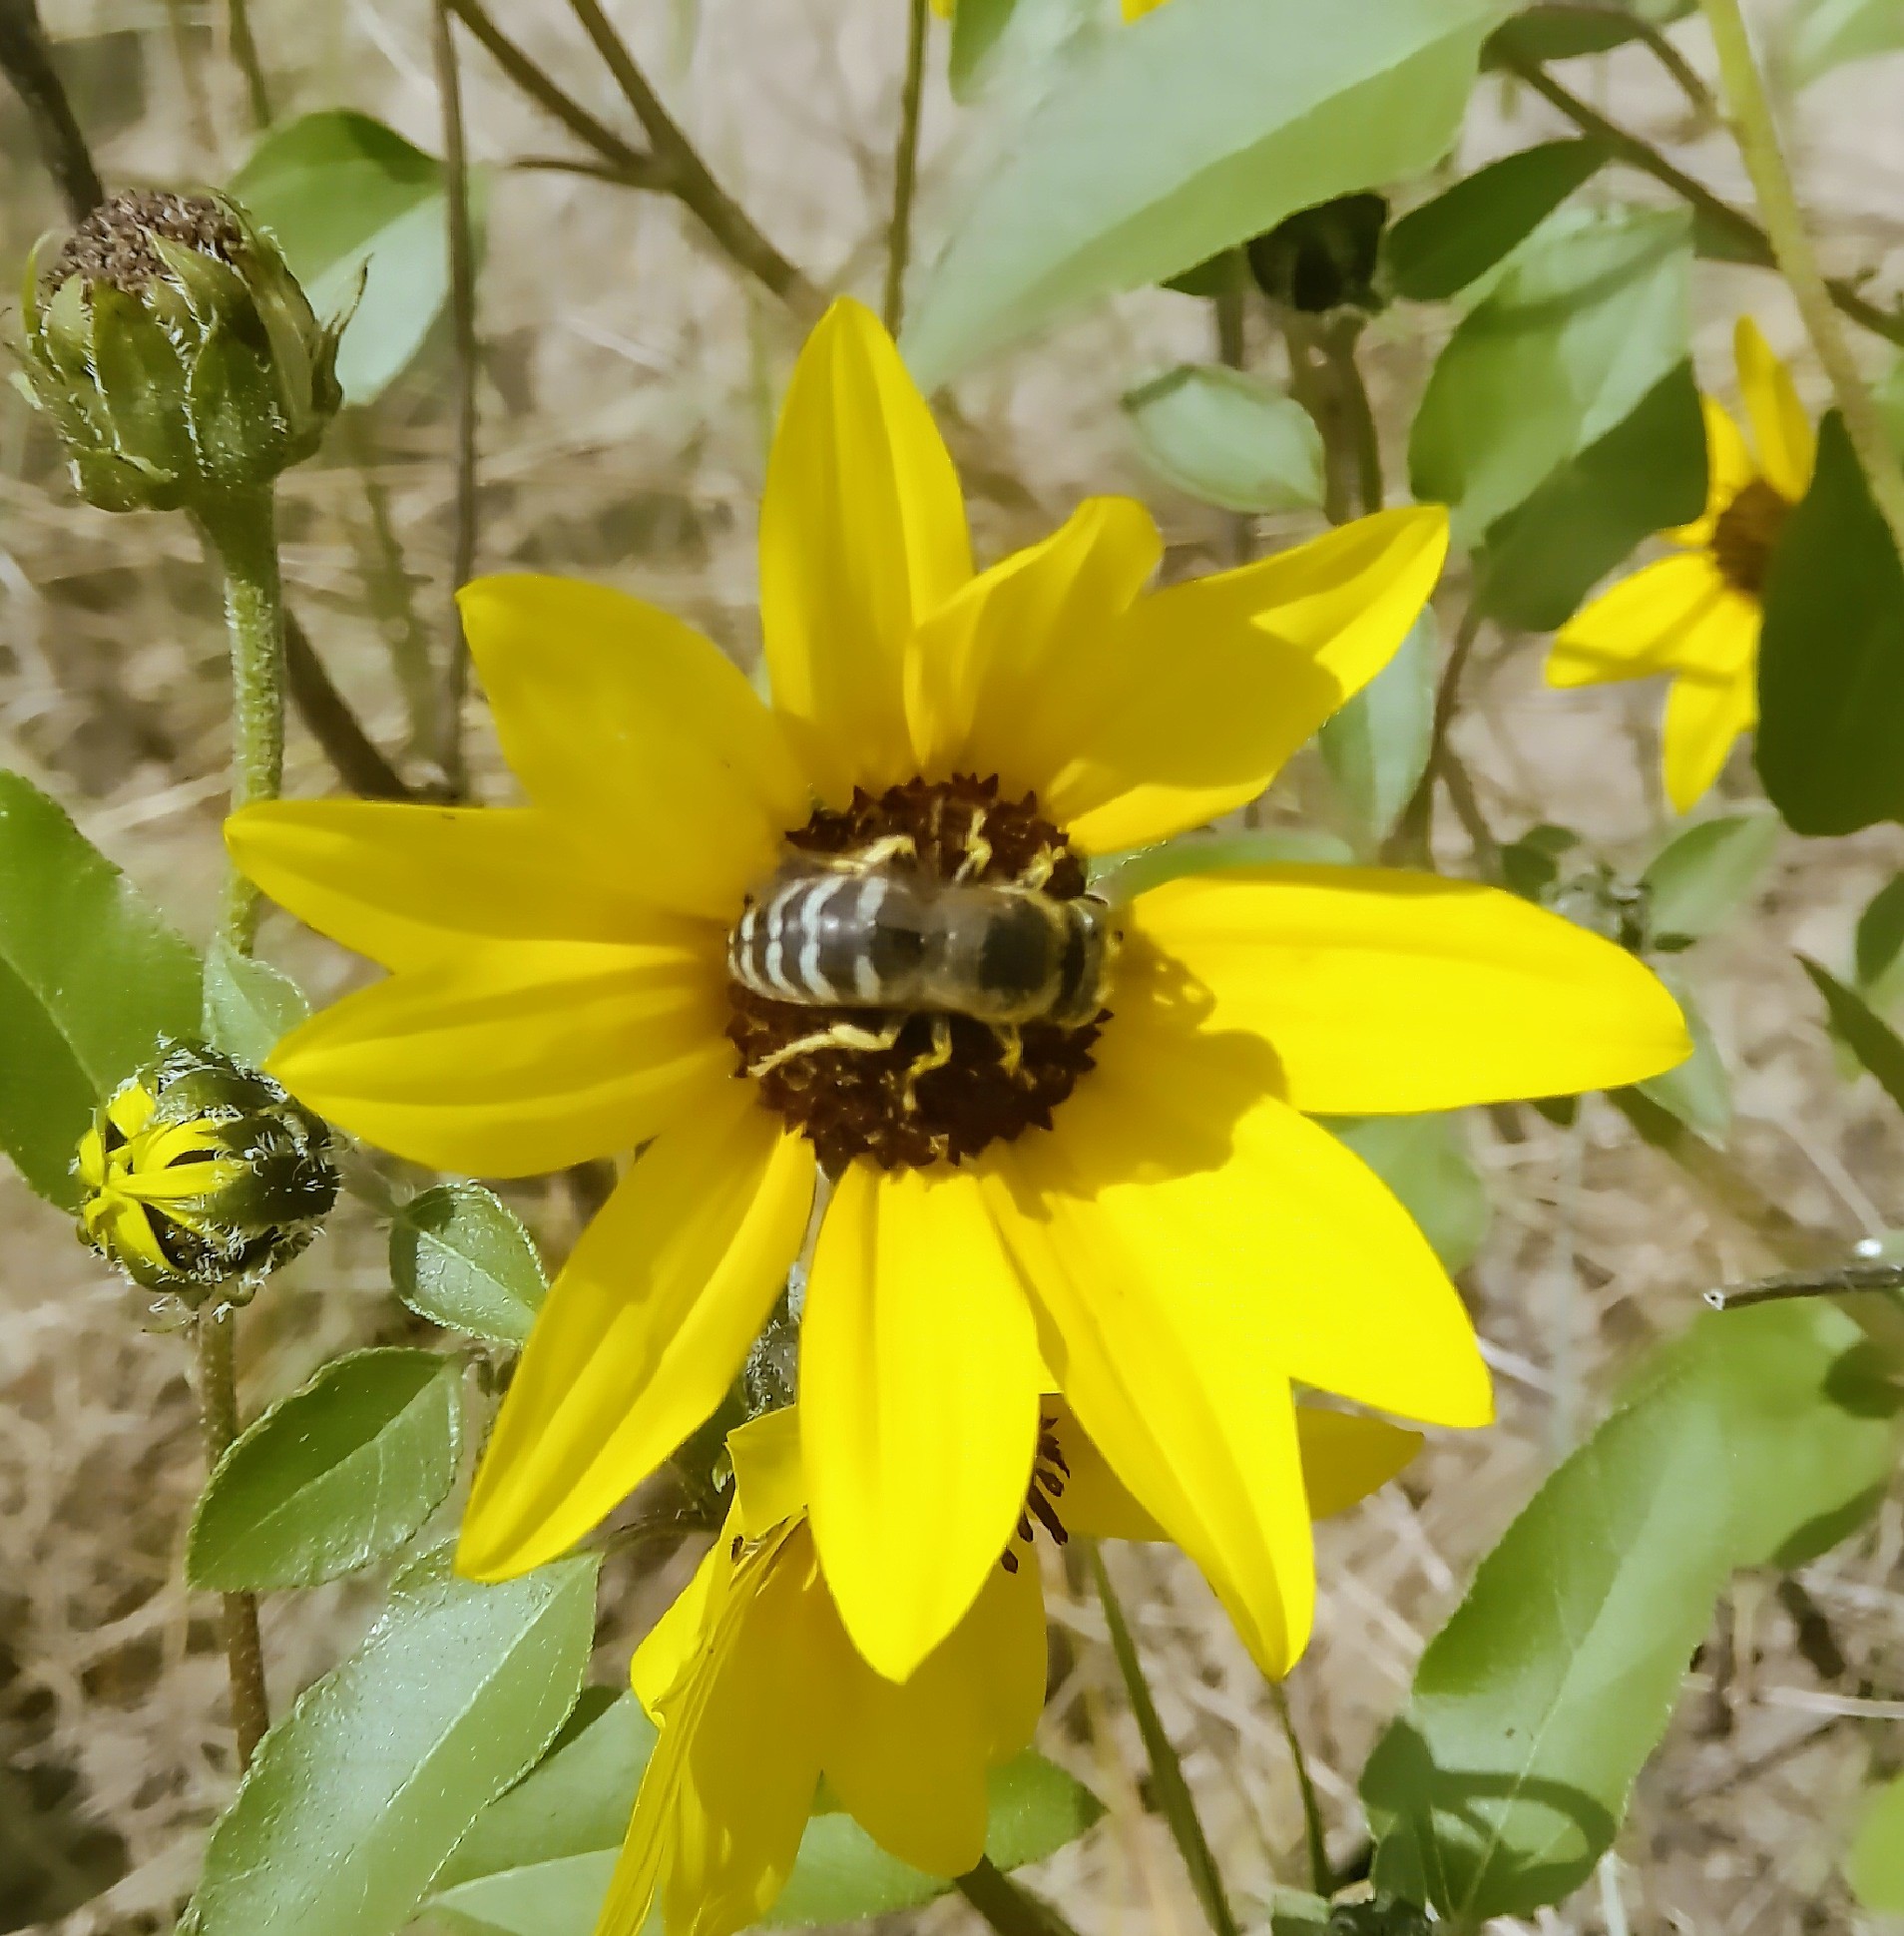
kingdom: Animalia
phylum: Arthropoda
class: Insecta
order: Hymenoptera
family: Crabronidae
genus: Bembix
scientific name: Bembix americana
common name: American sand wasp
